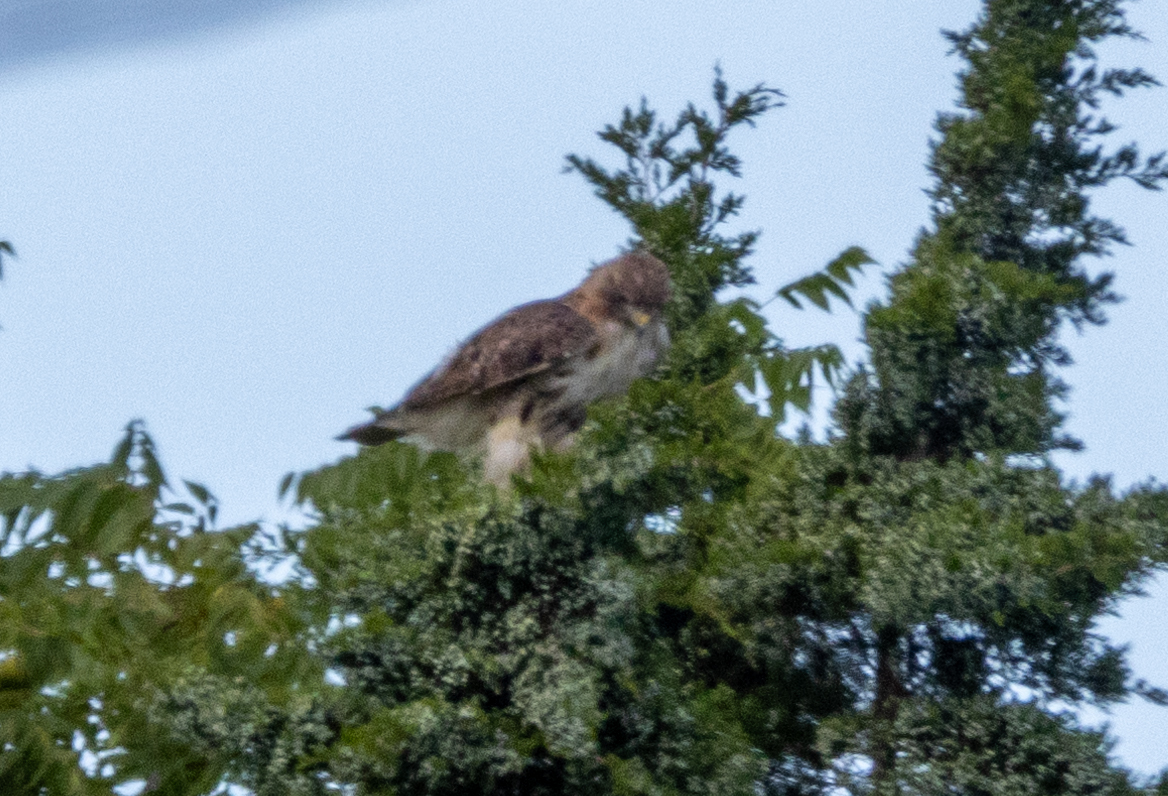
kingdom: Animalia
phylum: Chordata
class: Aves
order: Accipitriformes
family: Accipitridae
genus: Buteo
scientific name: Buteo jamaicensis
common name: Red-tailed hawk
